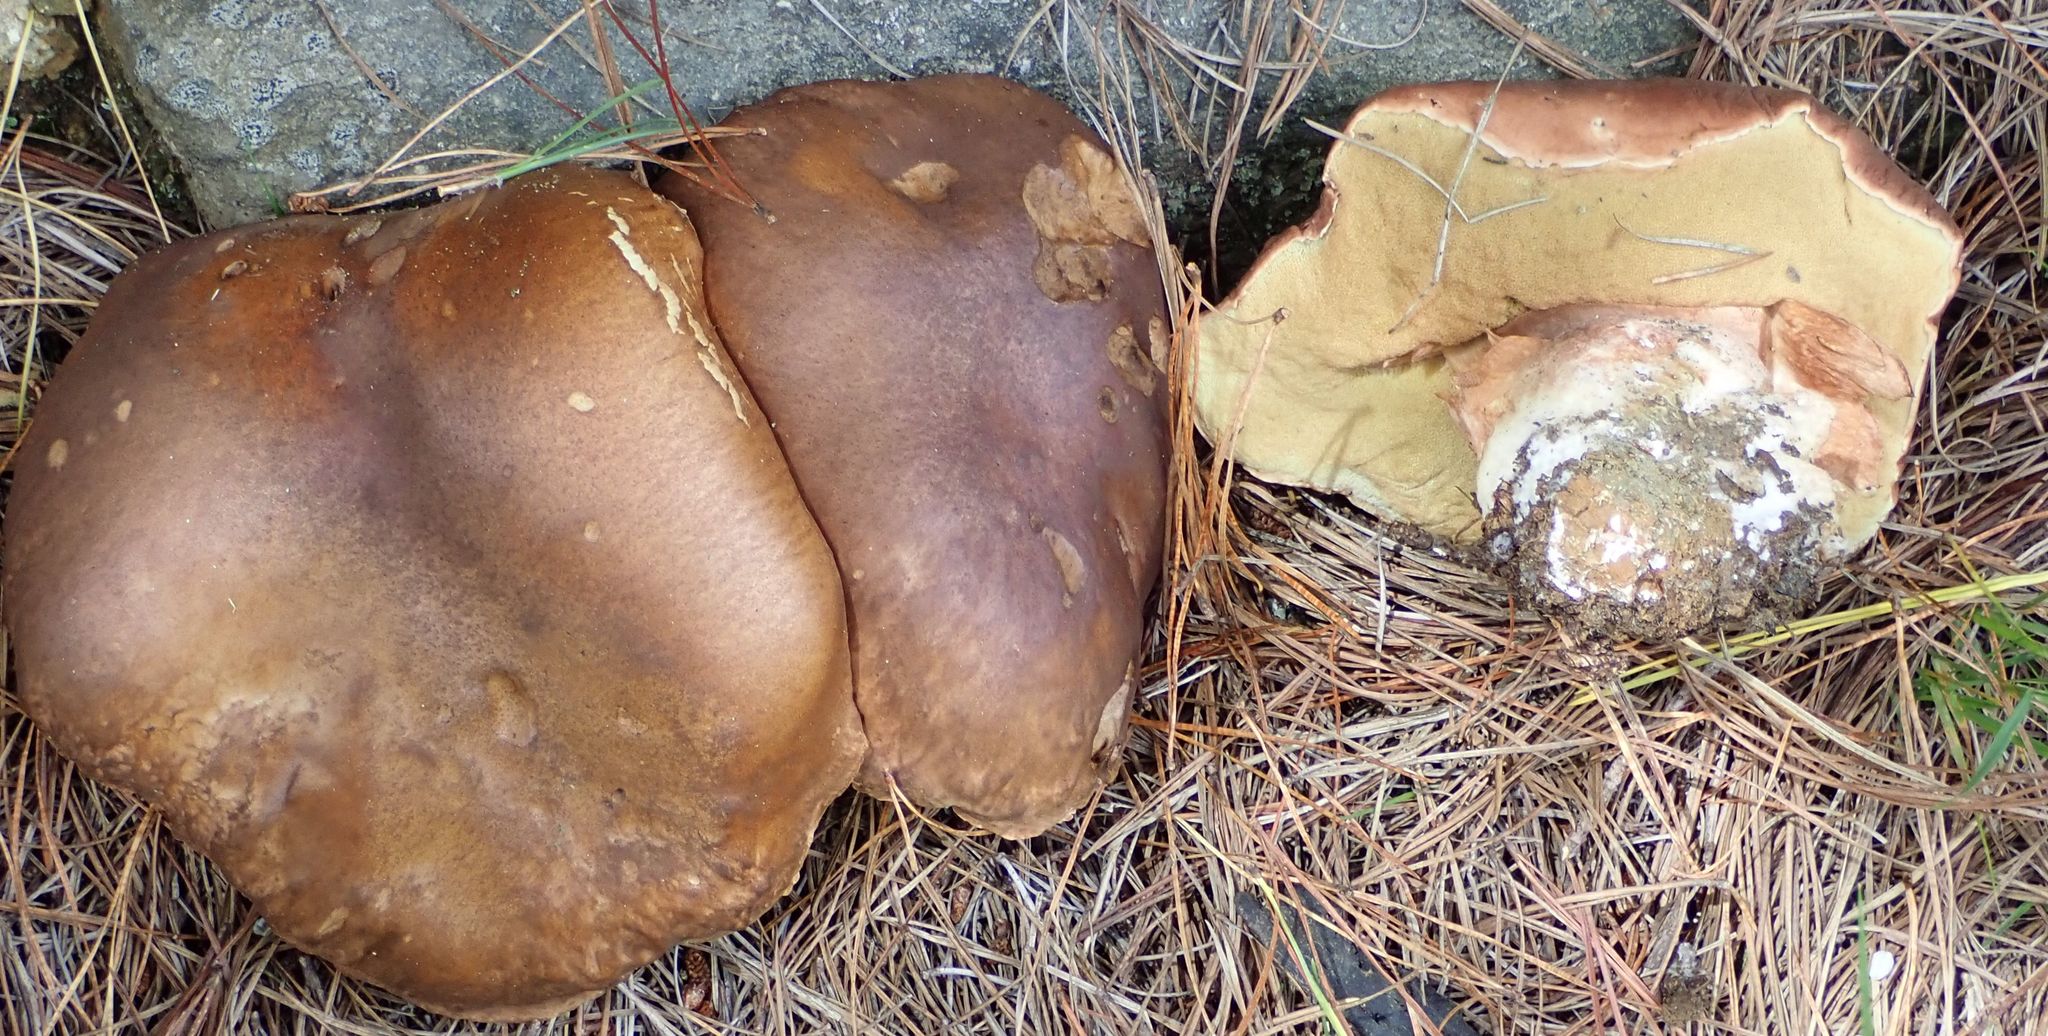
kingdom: Fungi
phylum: Basidiomycota
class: Agaricomycetes
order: Boletales
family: Boletaceae
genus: Boletus
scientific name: Boletus edulis
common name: Cep
